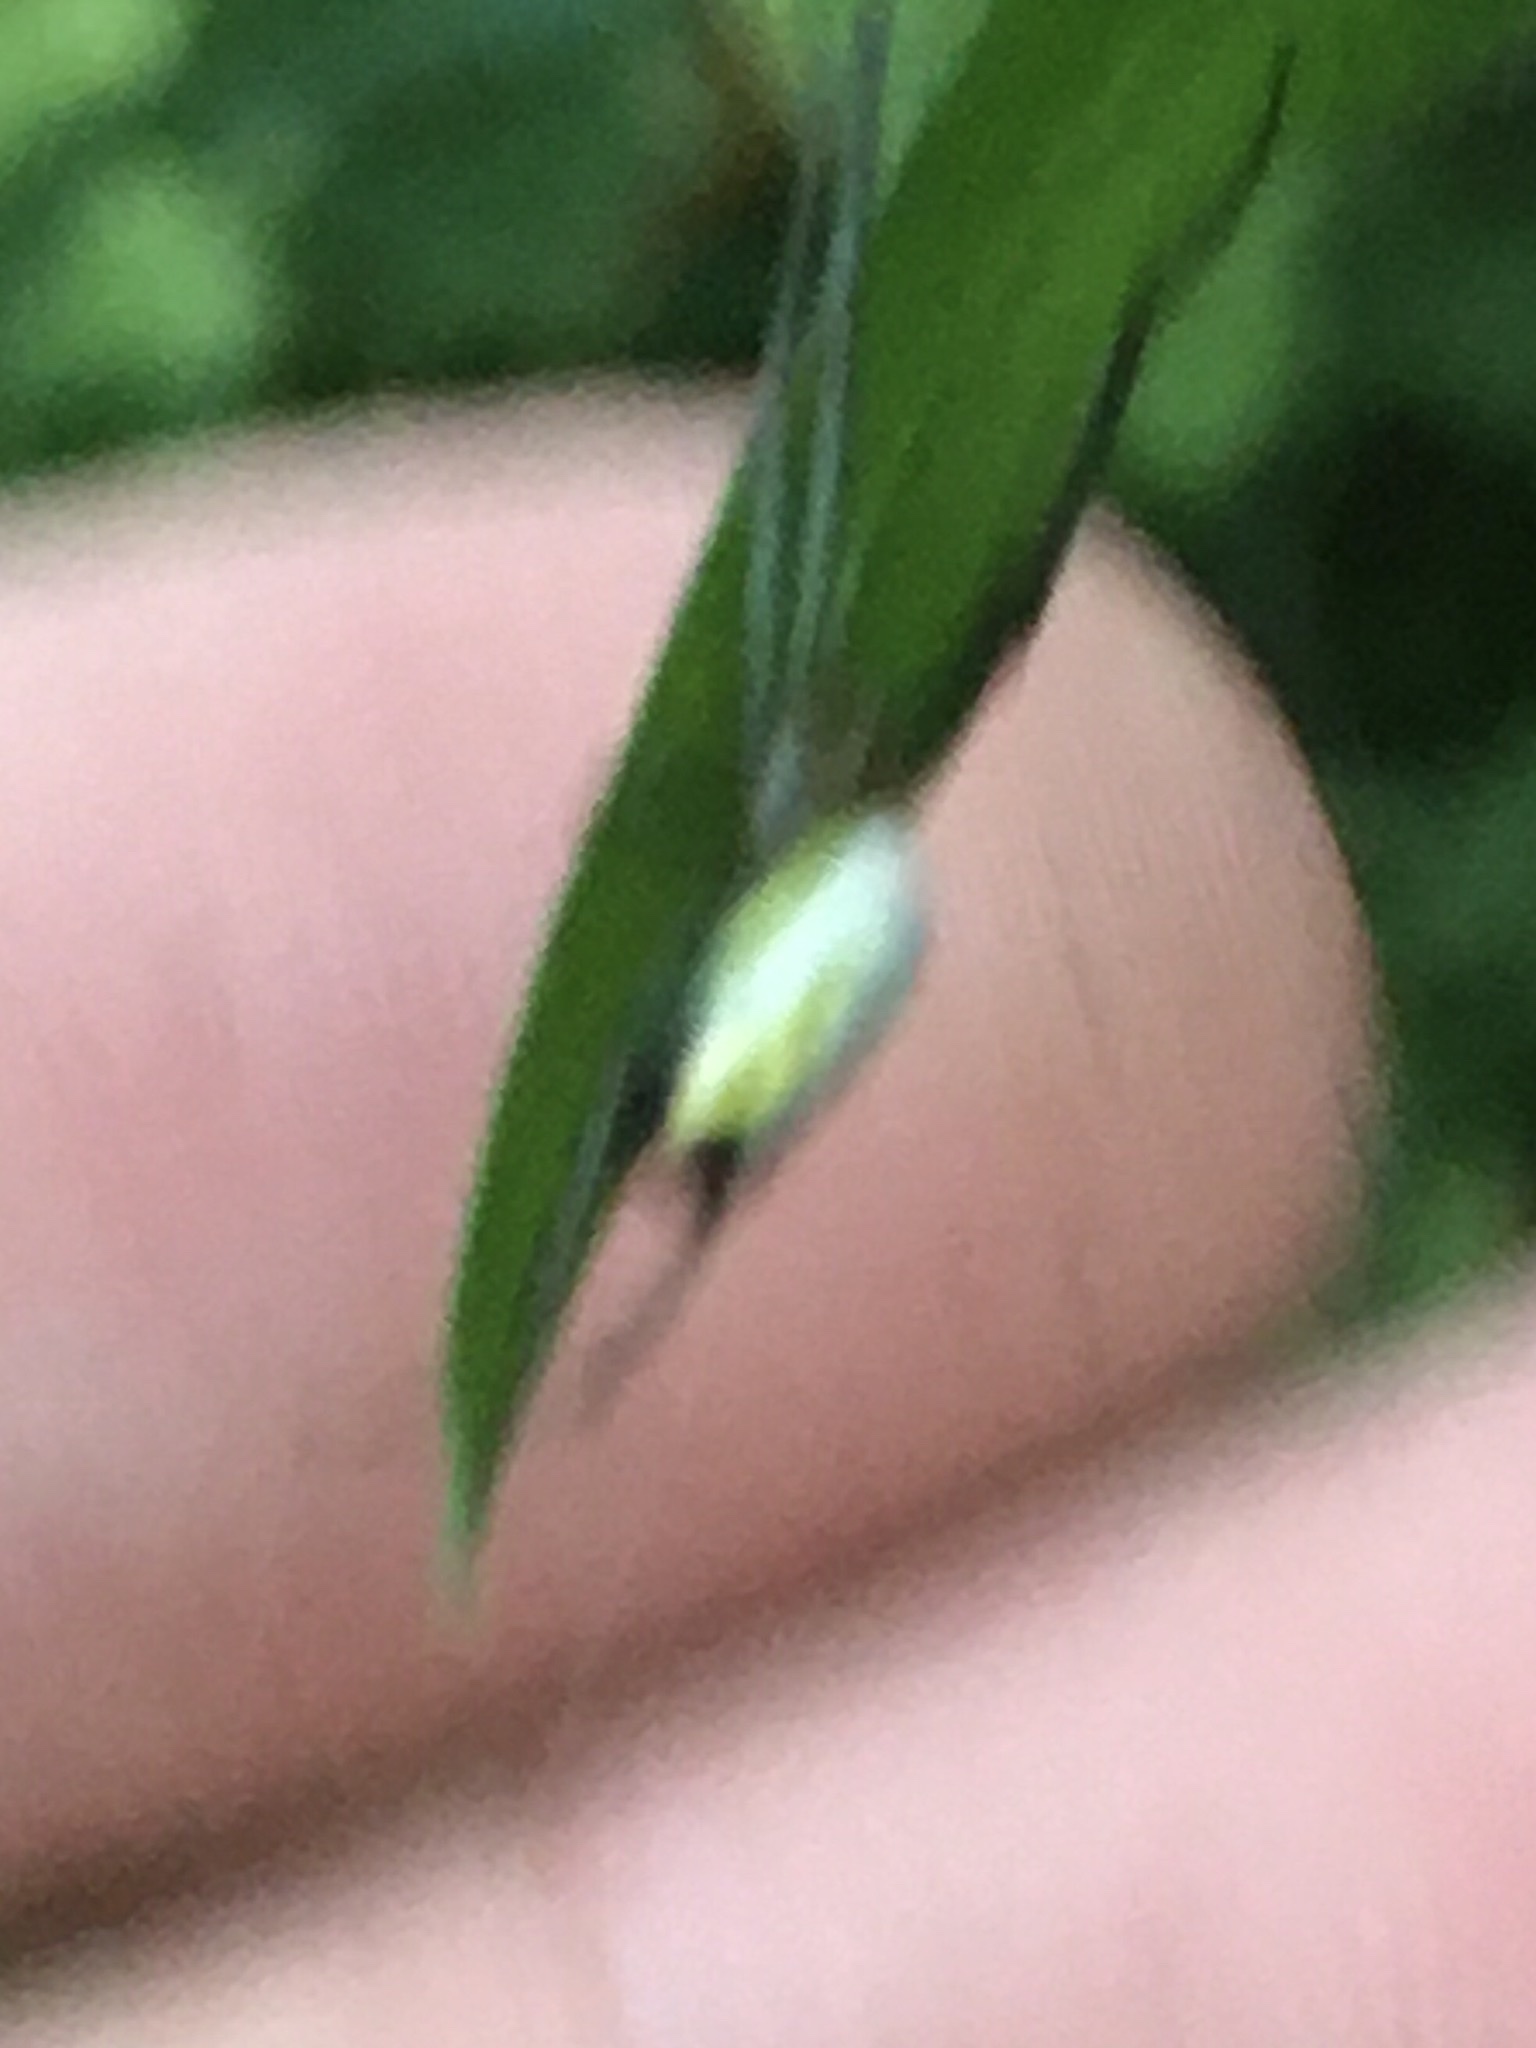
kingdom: Animalia
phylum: Arthropoda
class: Arachnida
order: Araneae
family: Tetragnathidae
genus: Leucauge
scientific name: Leucauge venusta
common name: Longjawed orb weavers
